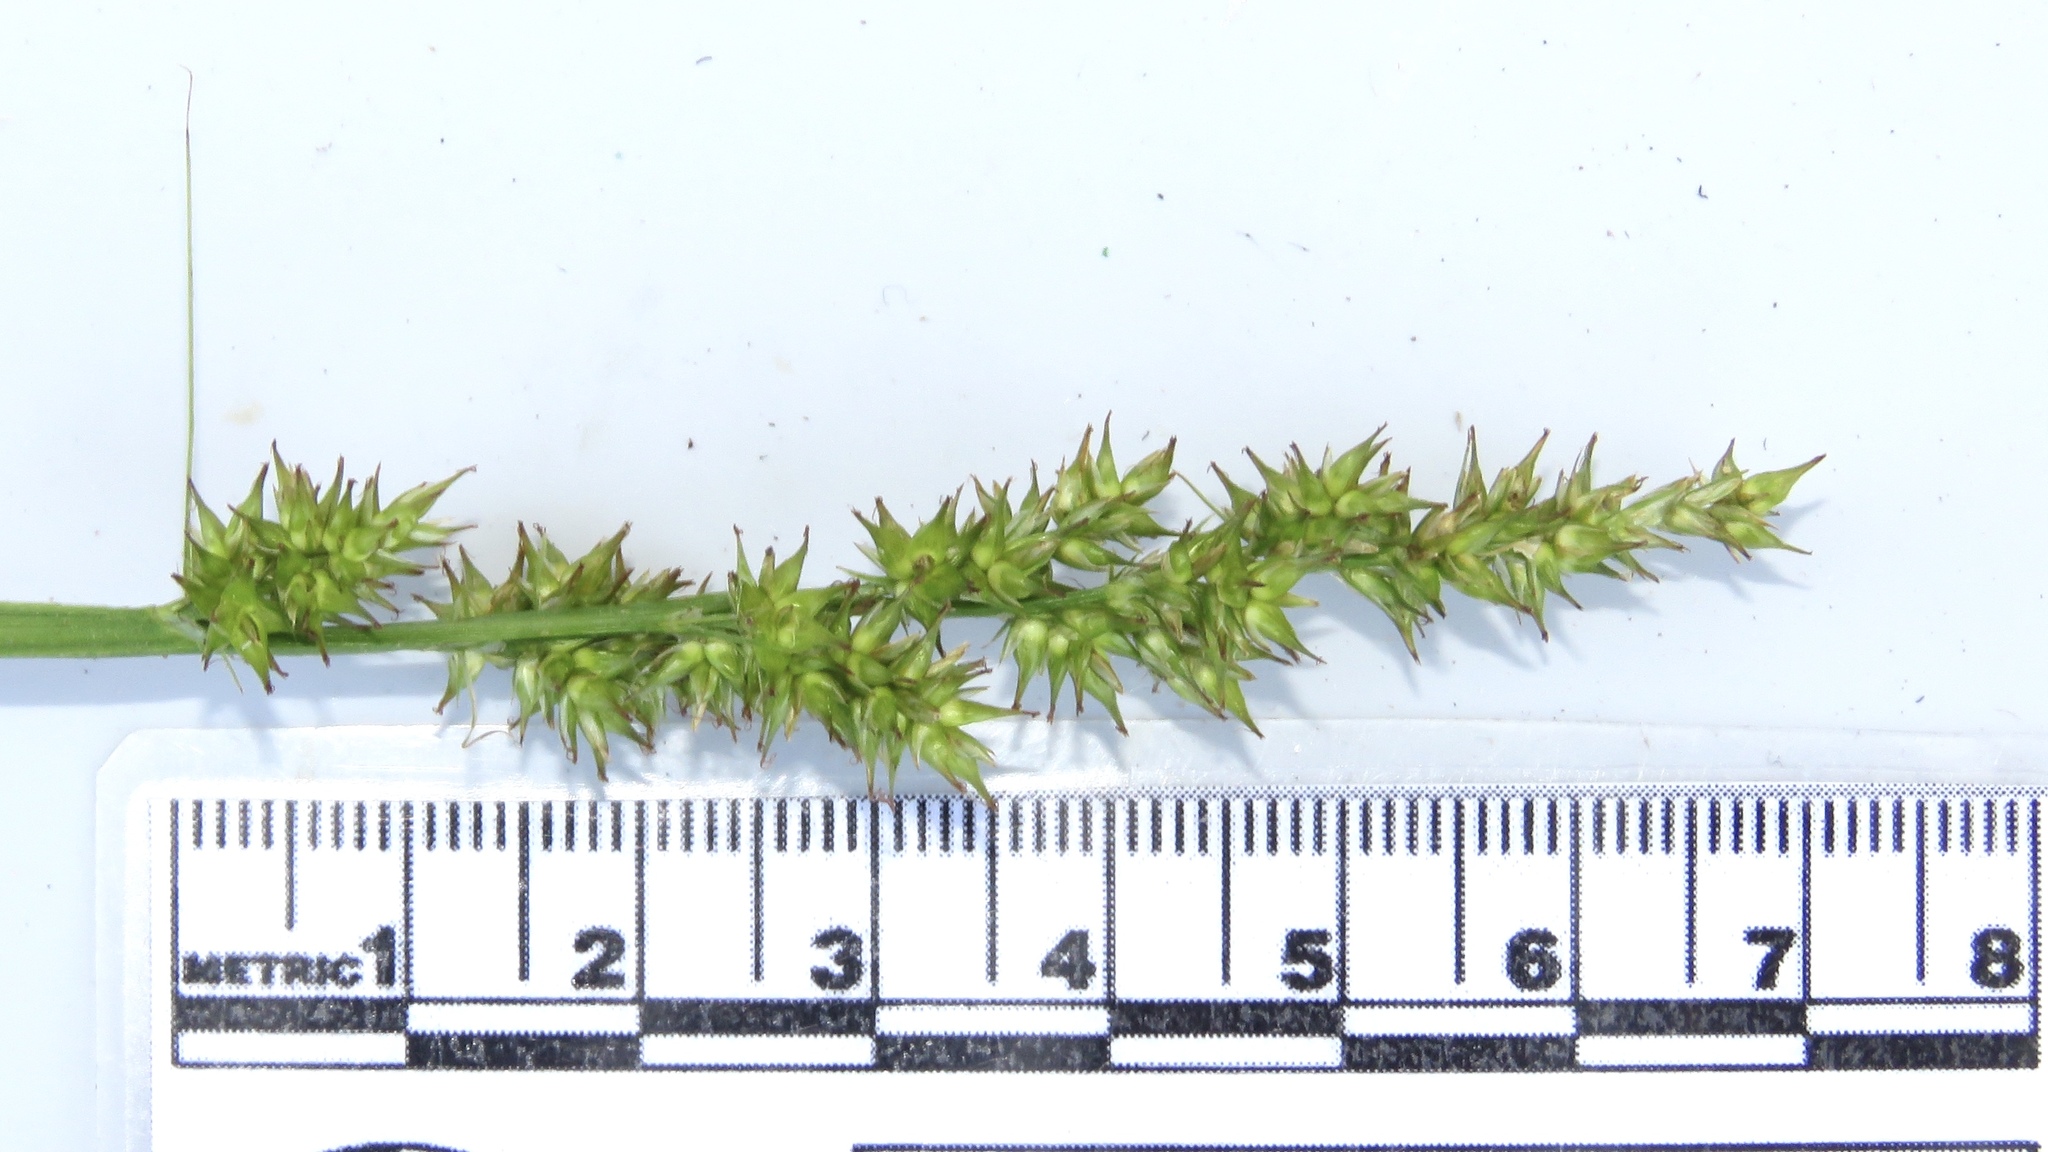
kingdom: Plantae
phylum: Tracheophyta
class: Liliopsida
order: Poales
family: Cyperaceae
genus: Carex
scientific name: Carex stipata
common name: Awl-fruited sedge
